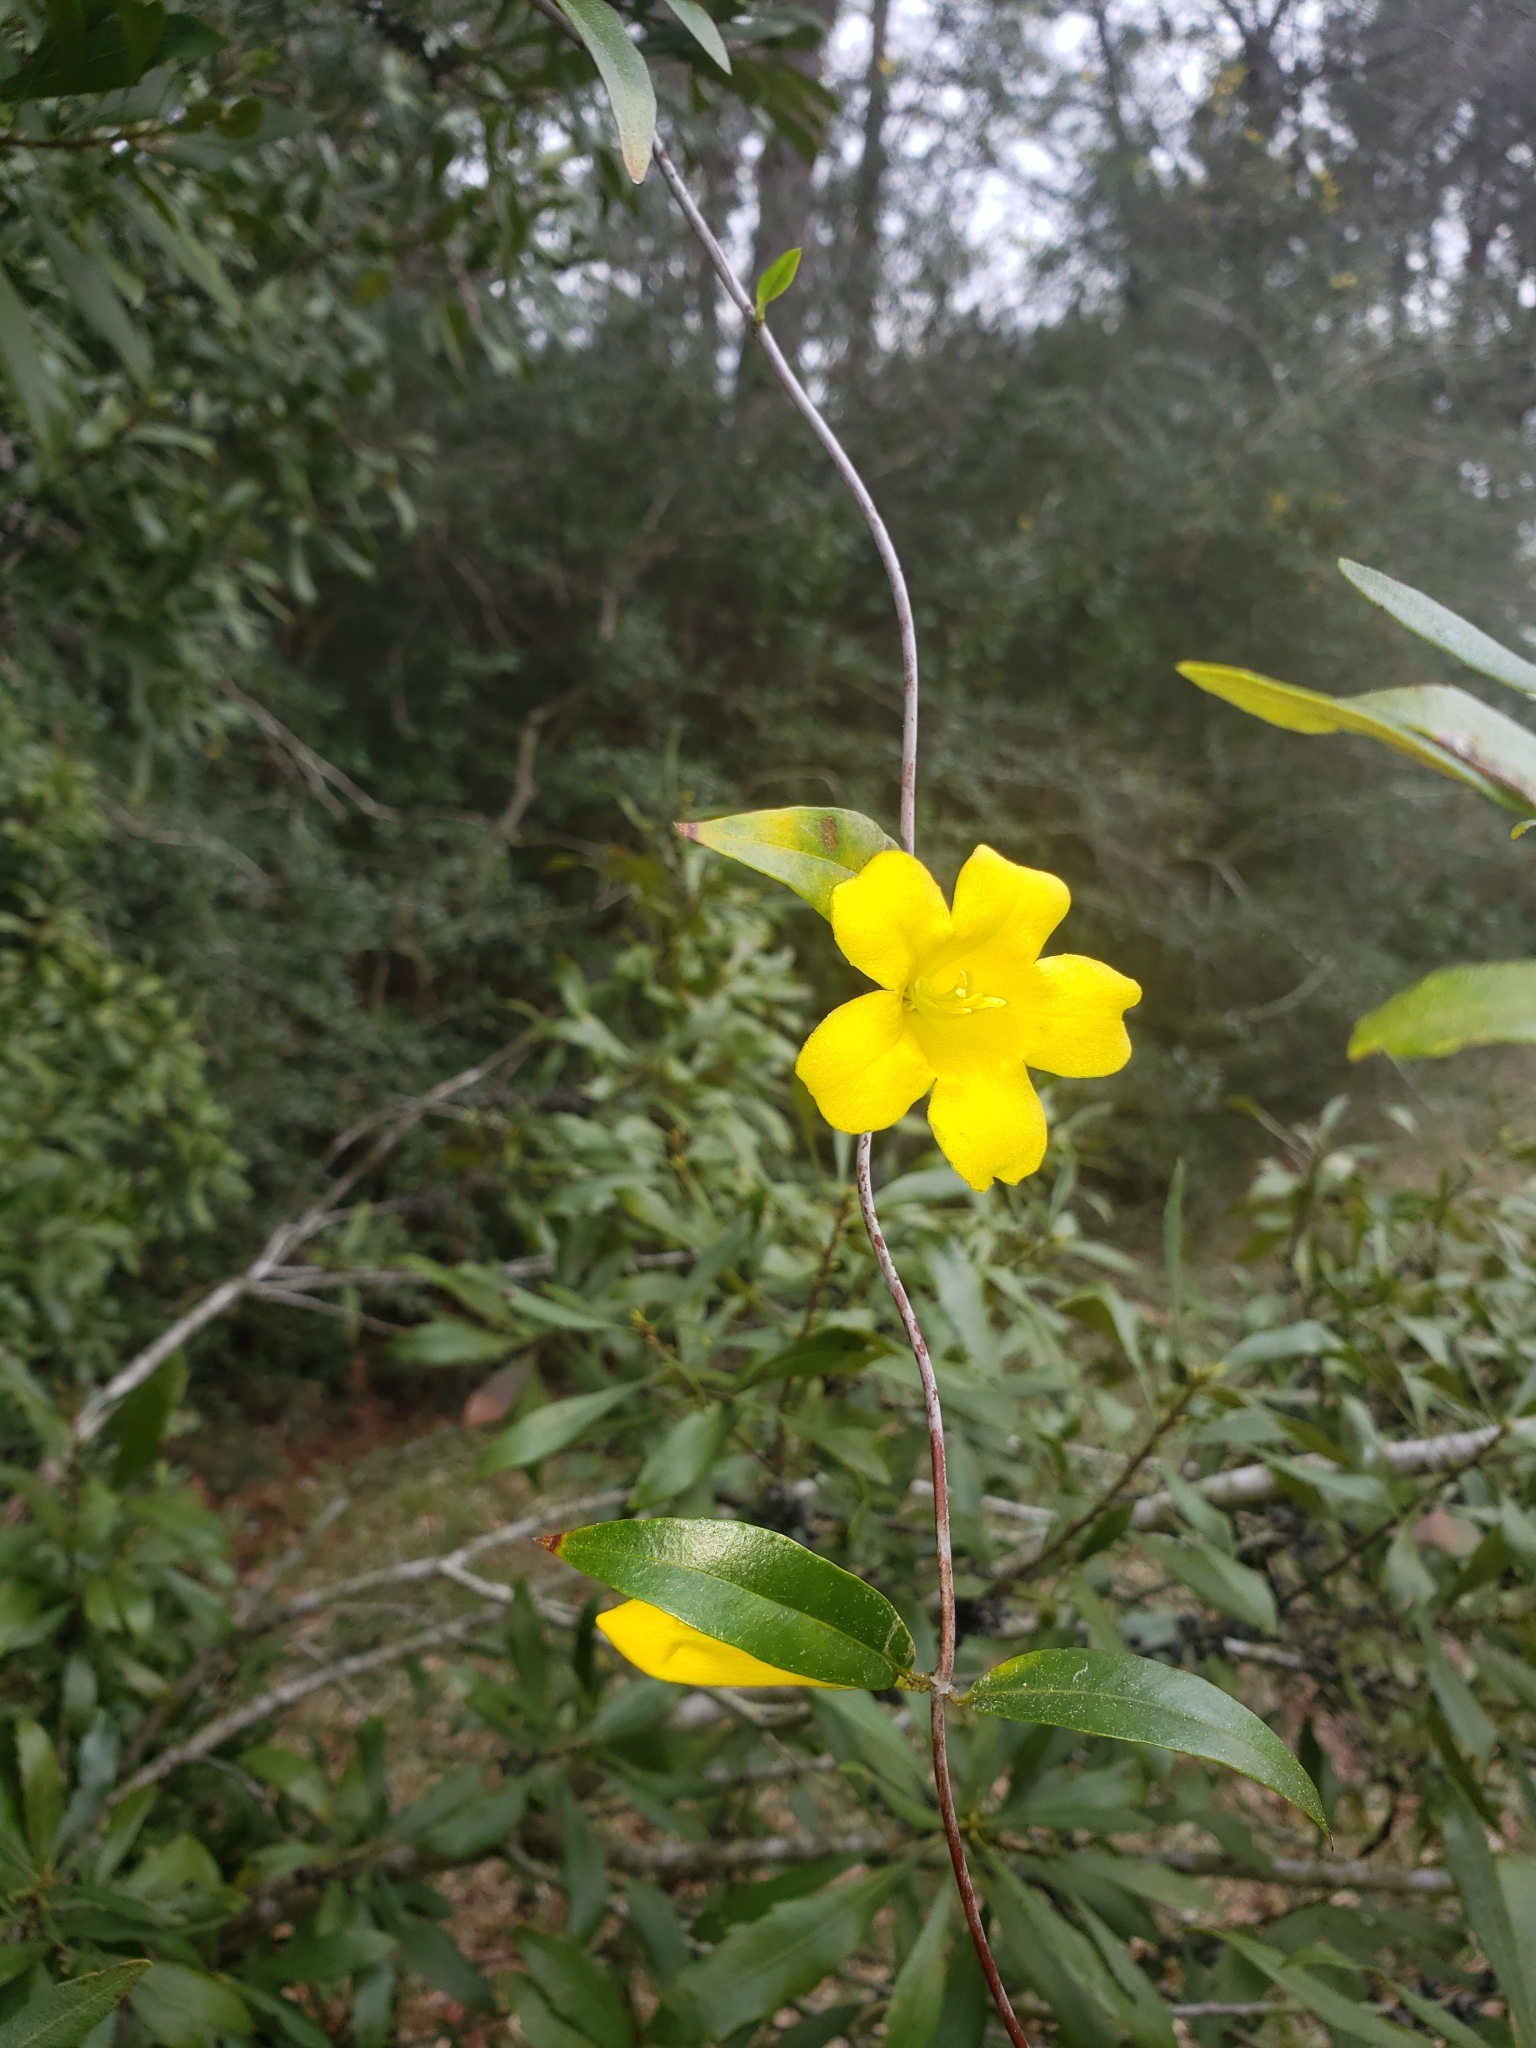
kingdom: Plantae
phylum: Tracheophyta
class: Magnoliopsida
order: Gentianales
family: Gelsemiaceae
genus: Gelsemium
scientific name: Gelsemium sempervirens
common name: Carolina-jasmine
